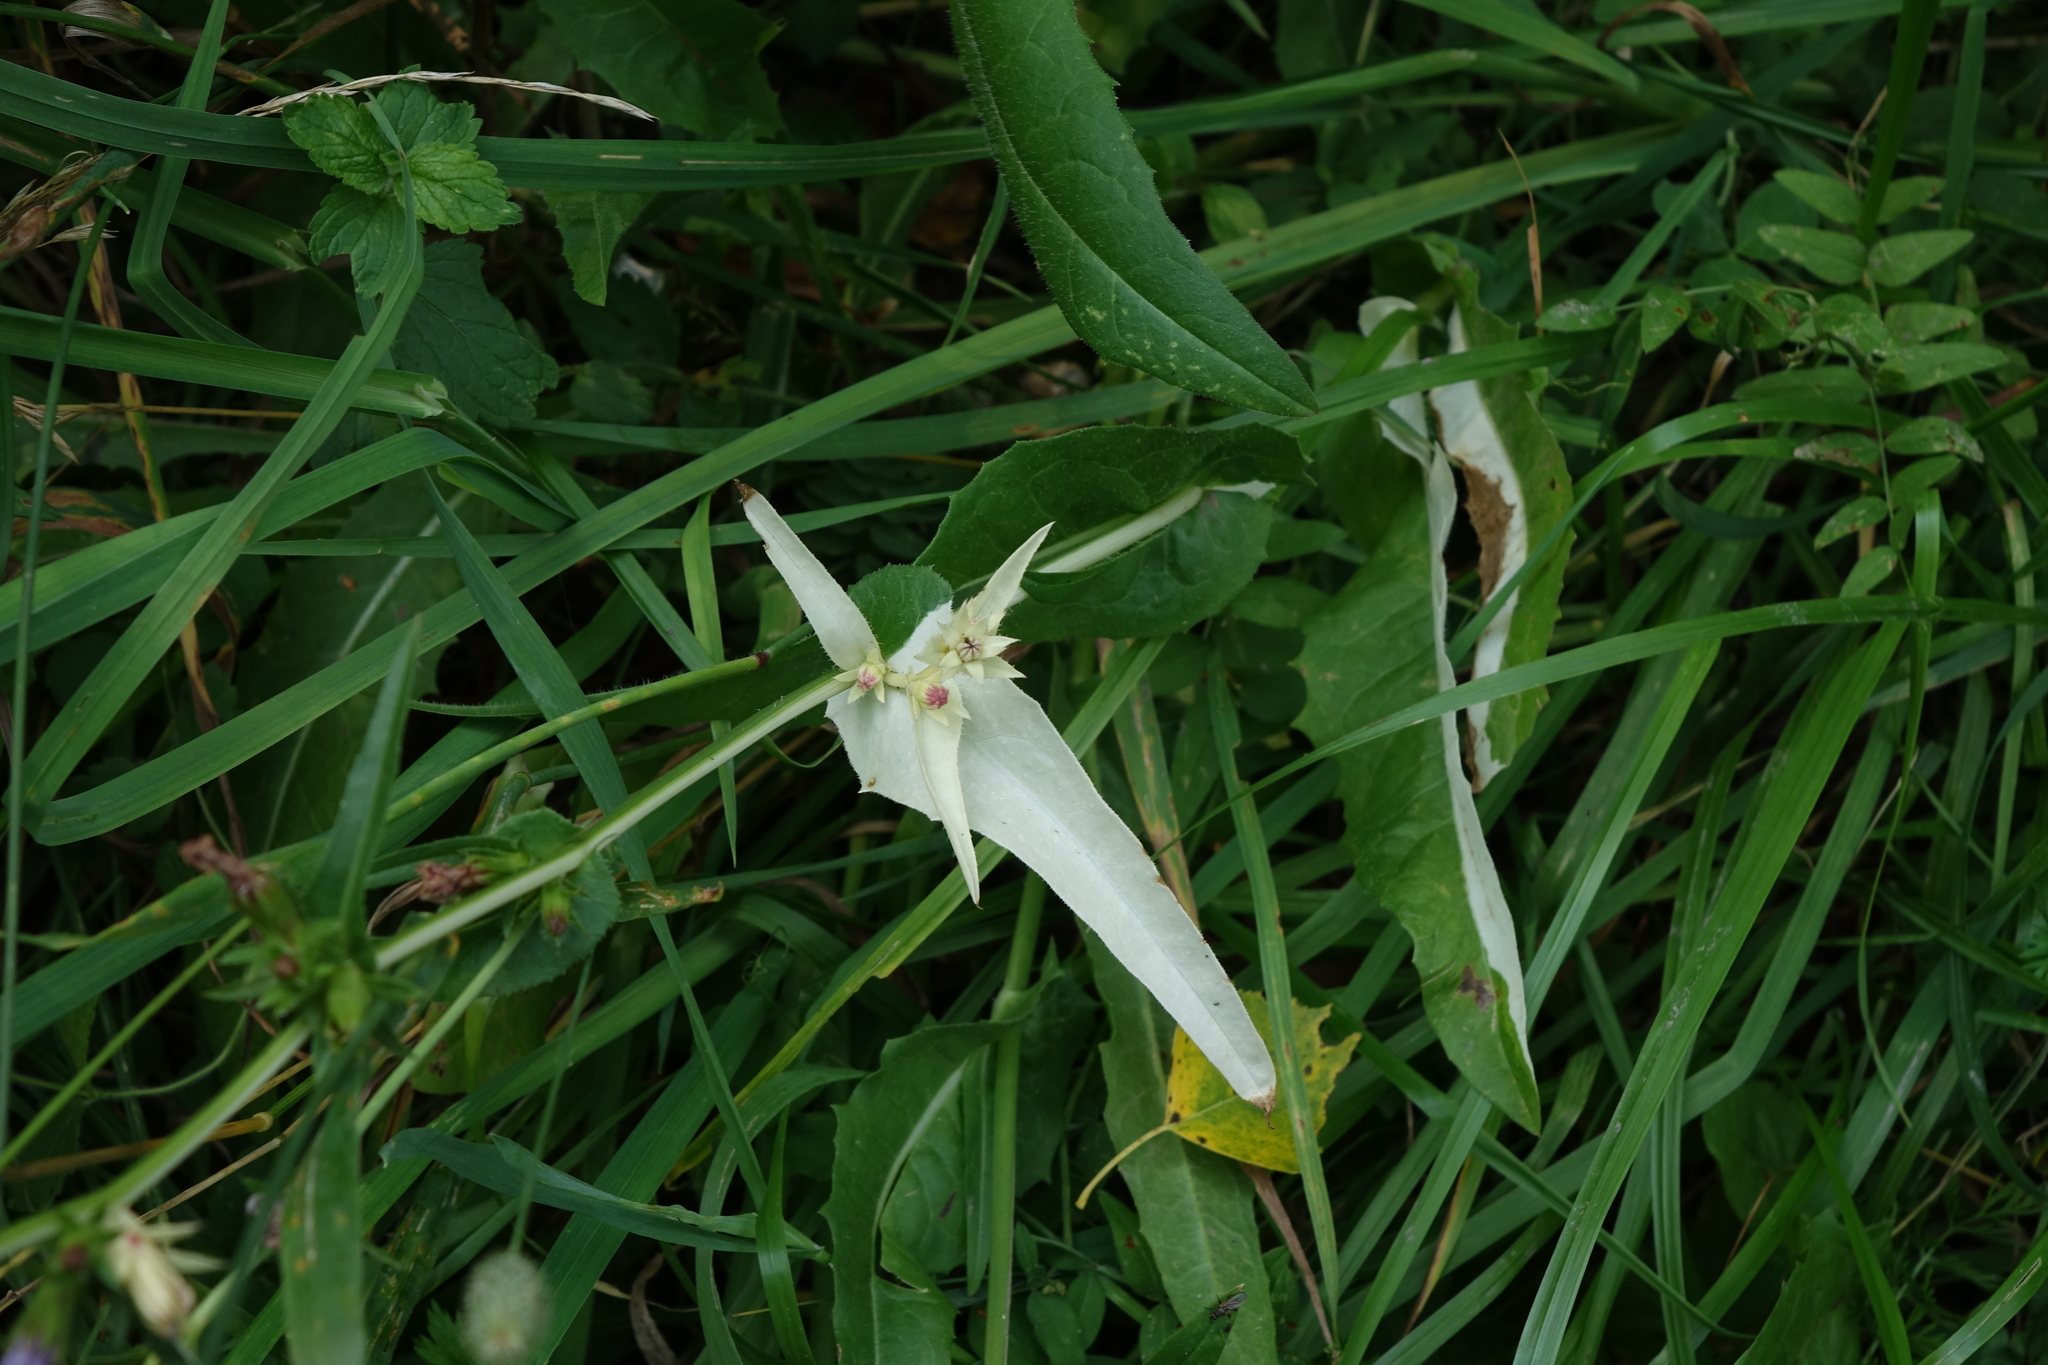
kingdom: Plantae
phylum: Tracheophyta
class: Magnoliopsida
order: Asterales
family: Asteraceae
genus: Cichorium
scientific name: Cichorium intybus
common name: Chicory
